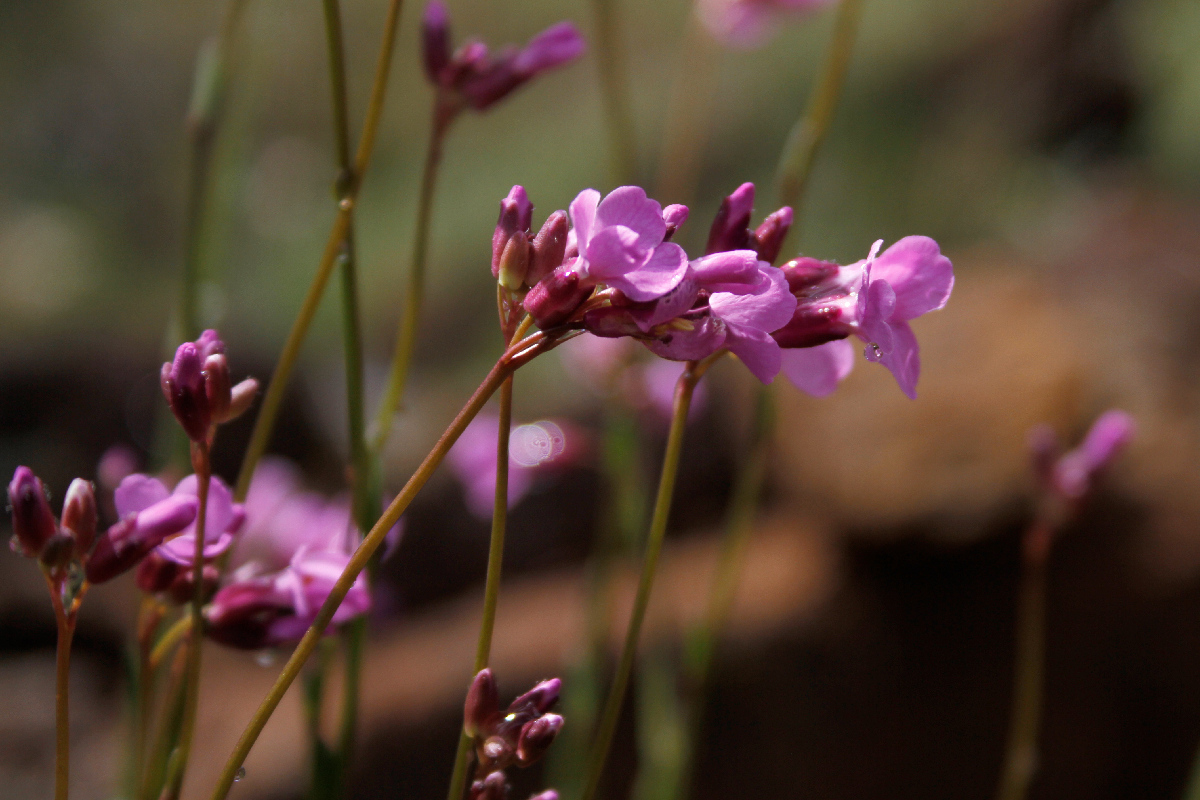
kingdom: Plantae
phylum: Tracheophyta
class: Magnoliopsida
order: Brassicales
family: Brassicaceae
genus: Arabis
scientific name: Arabis aculeolata
